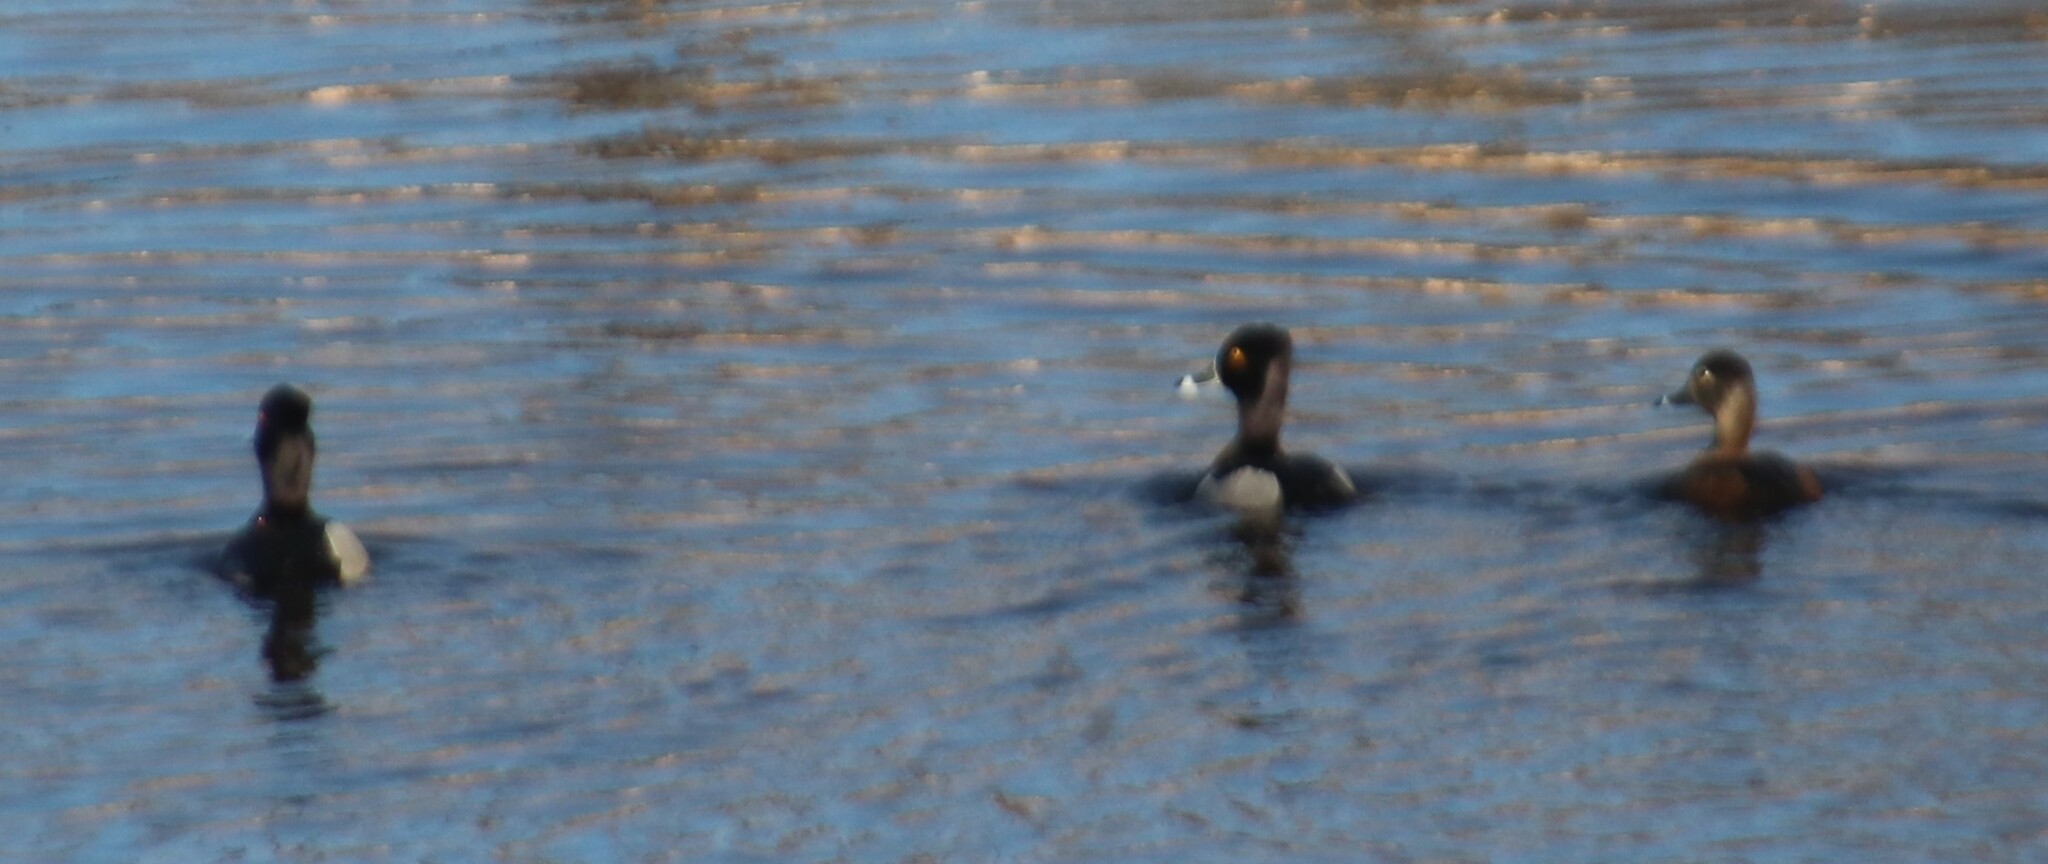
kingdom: Animalia
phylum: Chordata
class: Aves
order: Anseriformes
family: Anatidae
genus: Aythya
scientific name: Aythya collaris
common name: Ring-necked duck
